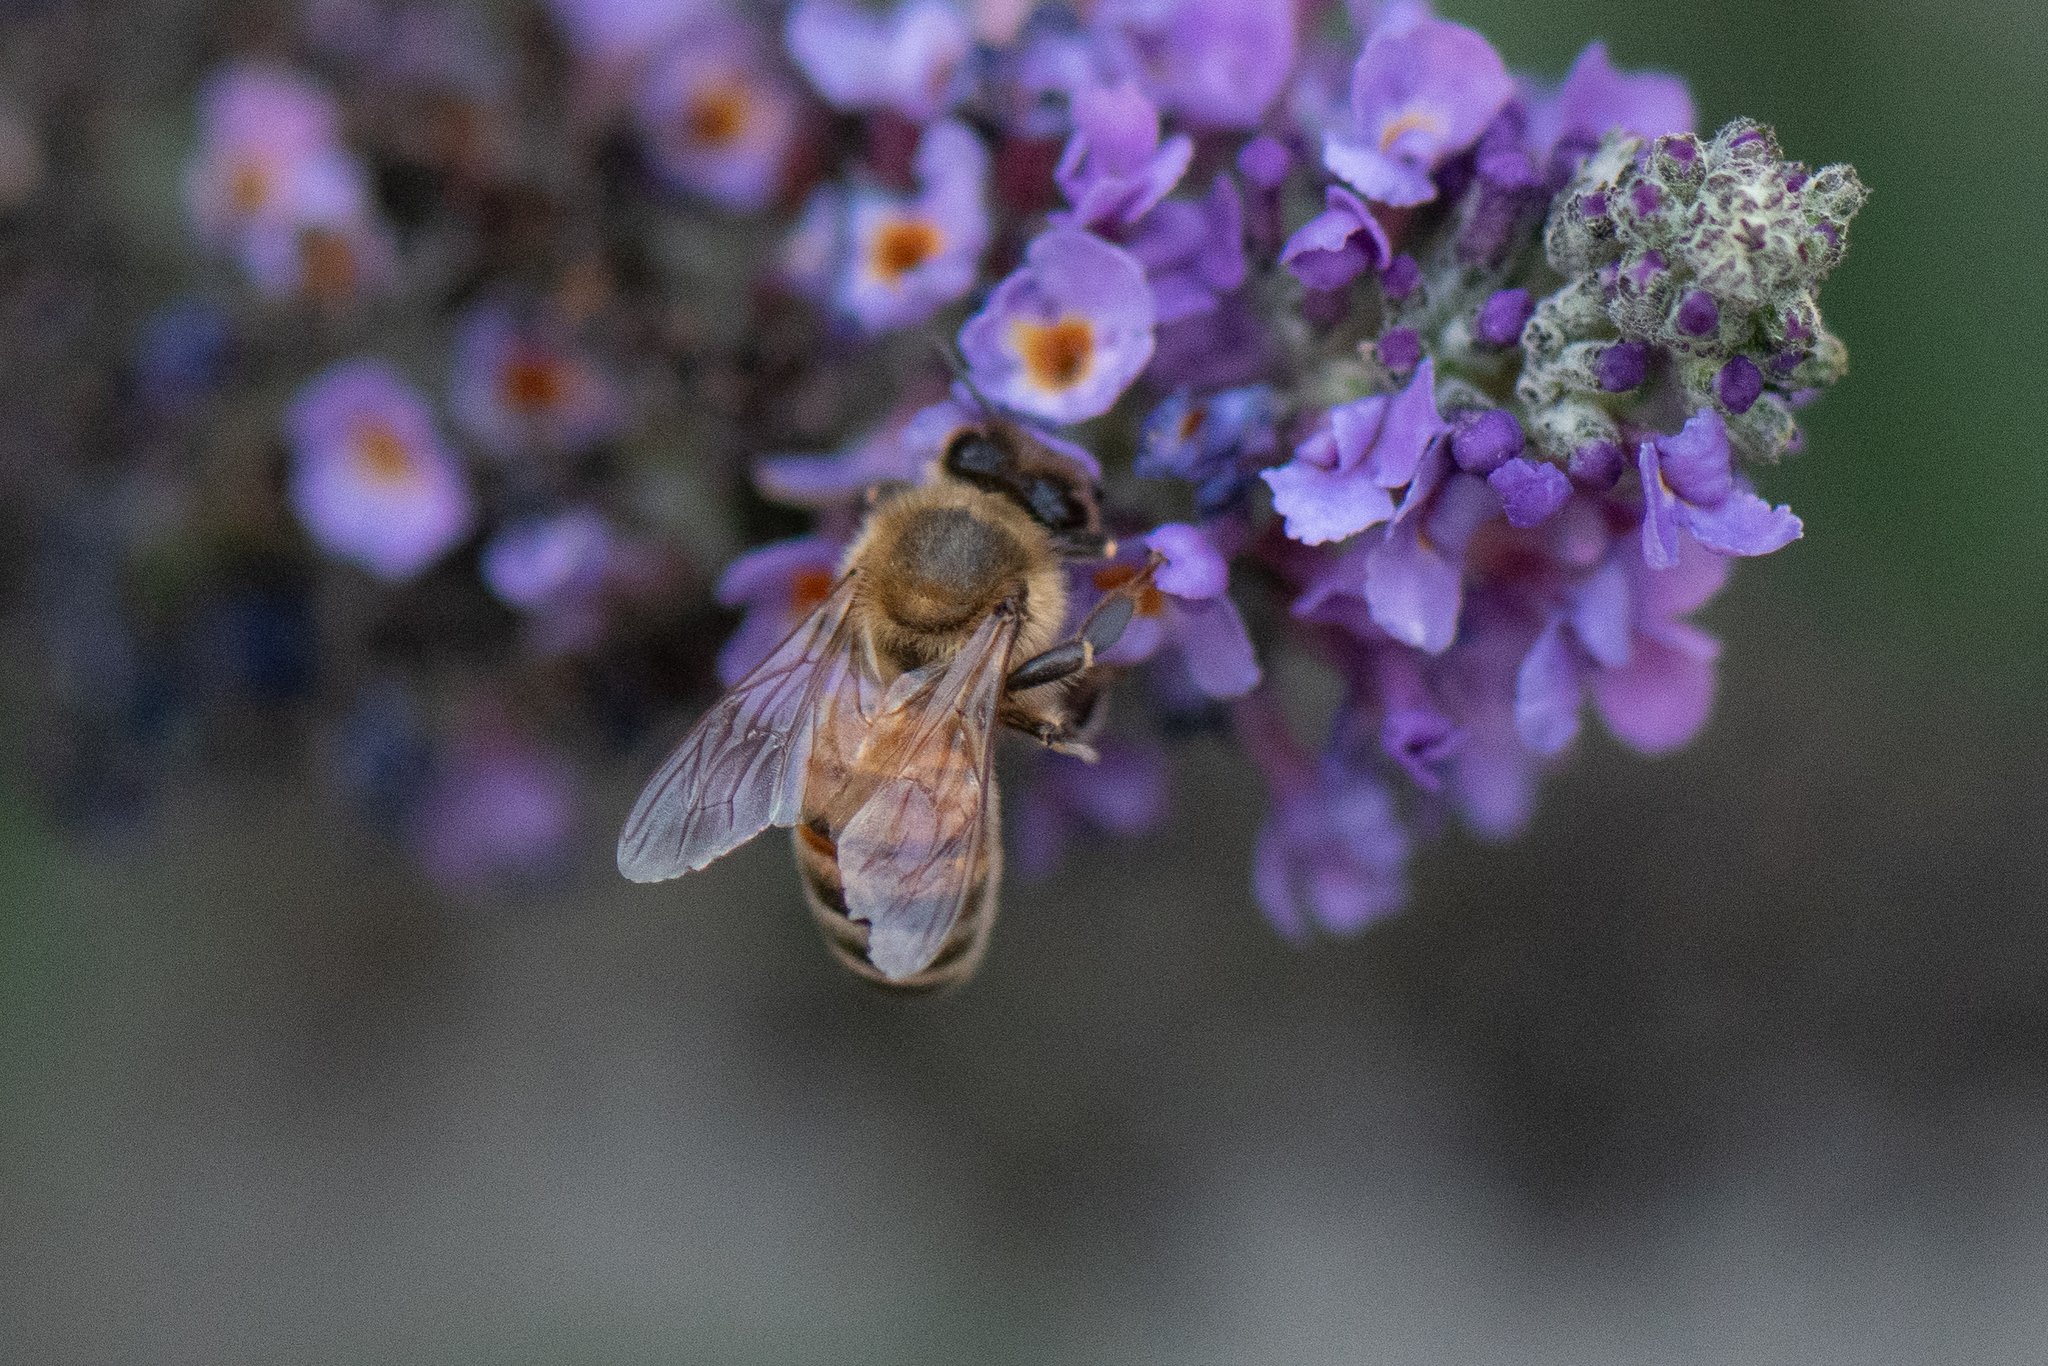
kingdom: Animalia
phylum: Arthropoda
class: Insecta
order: Hymenoptera
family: Apidae
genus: Apis
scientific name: Apis mellifera
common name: Honey bee
